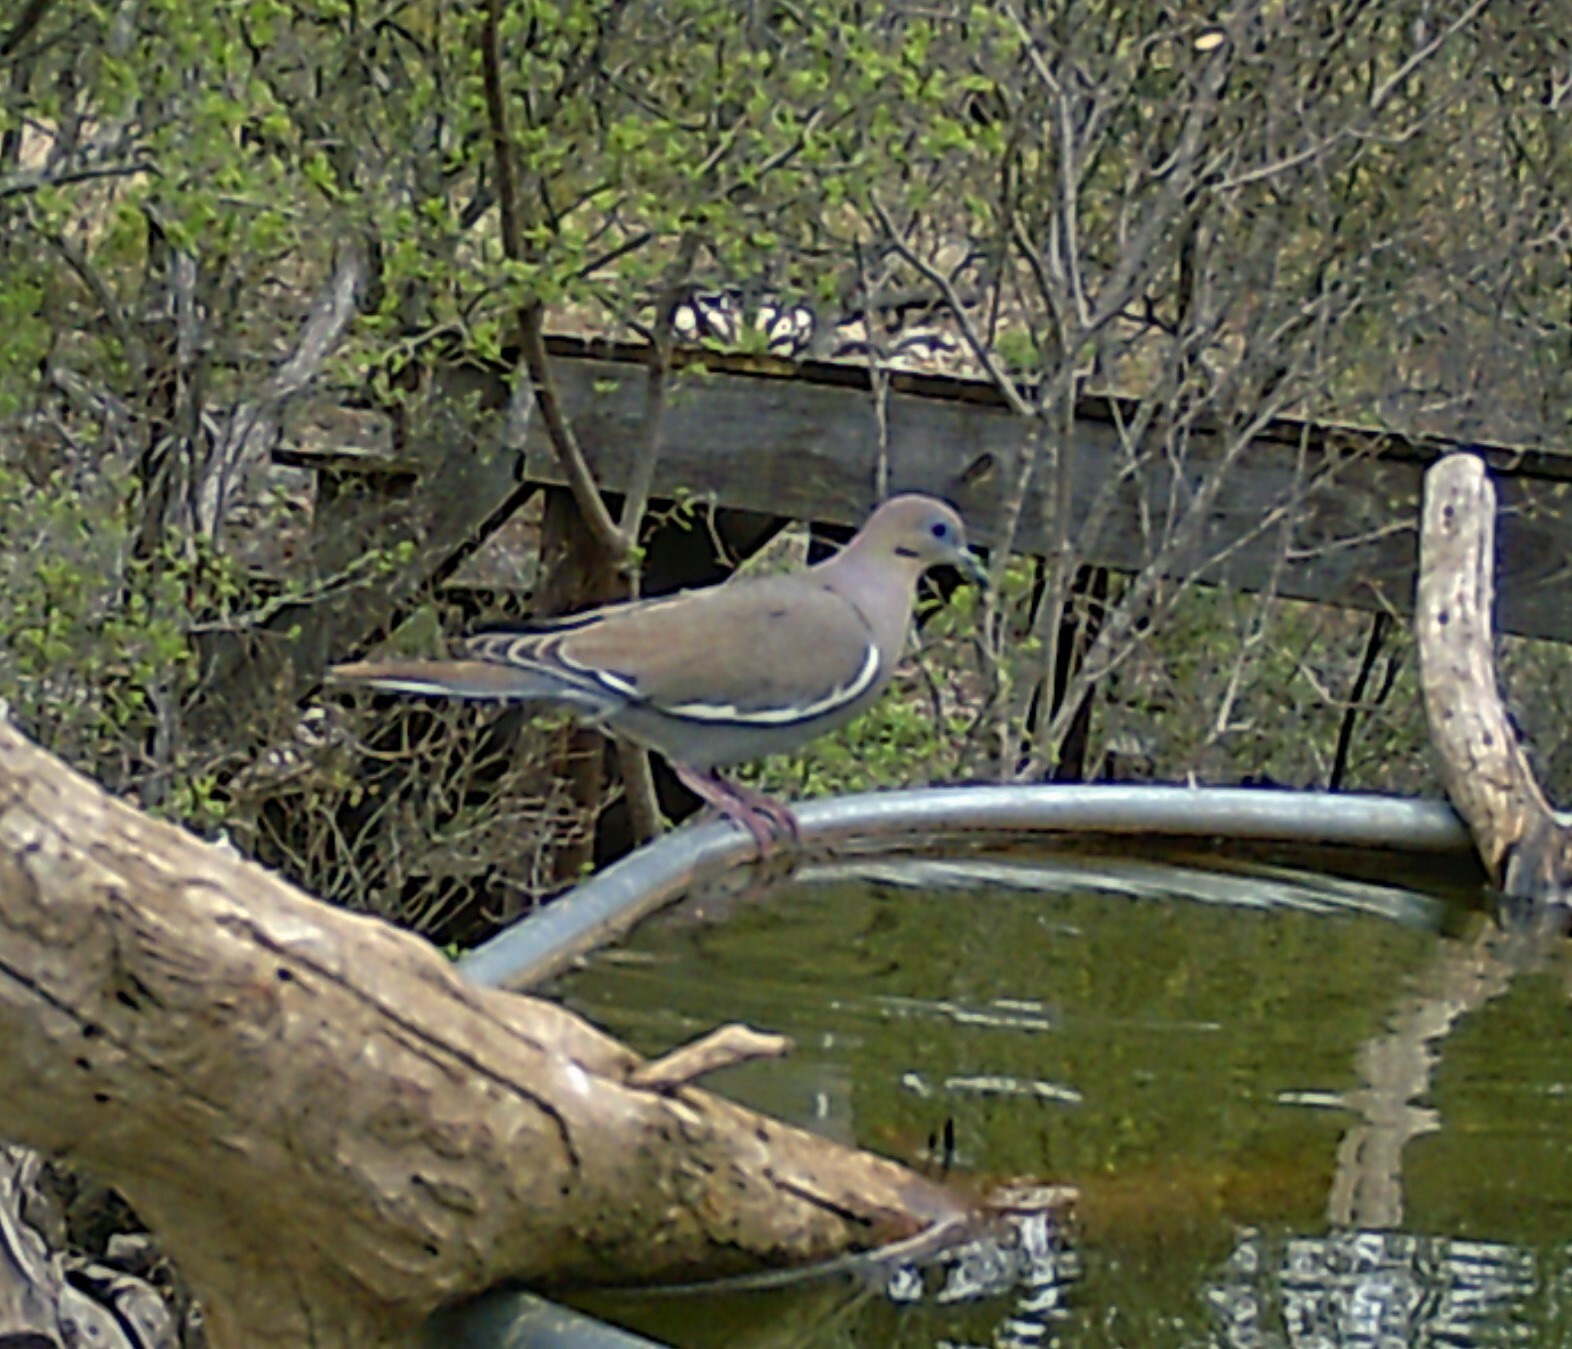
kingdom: Animalia
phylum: Chordata
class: Aves
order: Columbiformes
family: Columbidae
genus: Zenaida
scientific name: Zenaida asiatica
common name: White-winged dove
